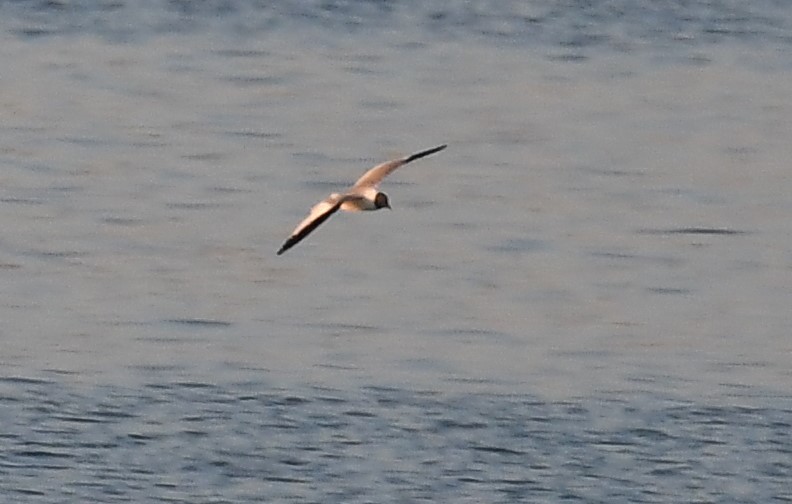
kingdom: Animalia
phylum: Chordata
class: Aves
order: Charadriiformes
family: Laridae
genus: Xema
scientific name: Xema sabini
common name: Sabine's gull
